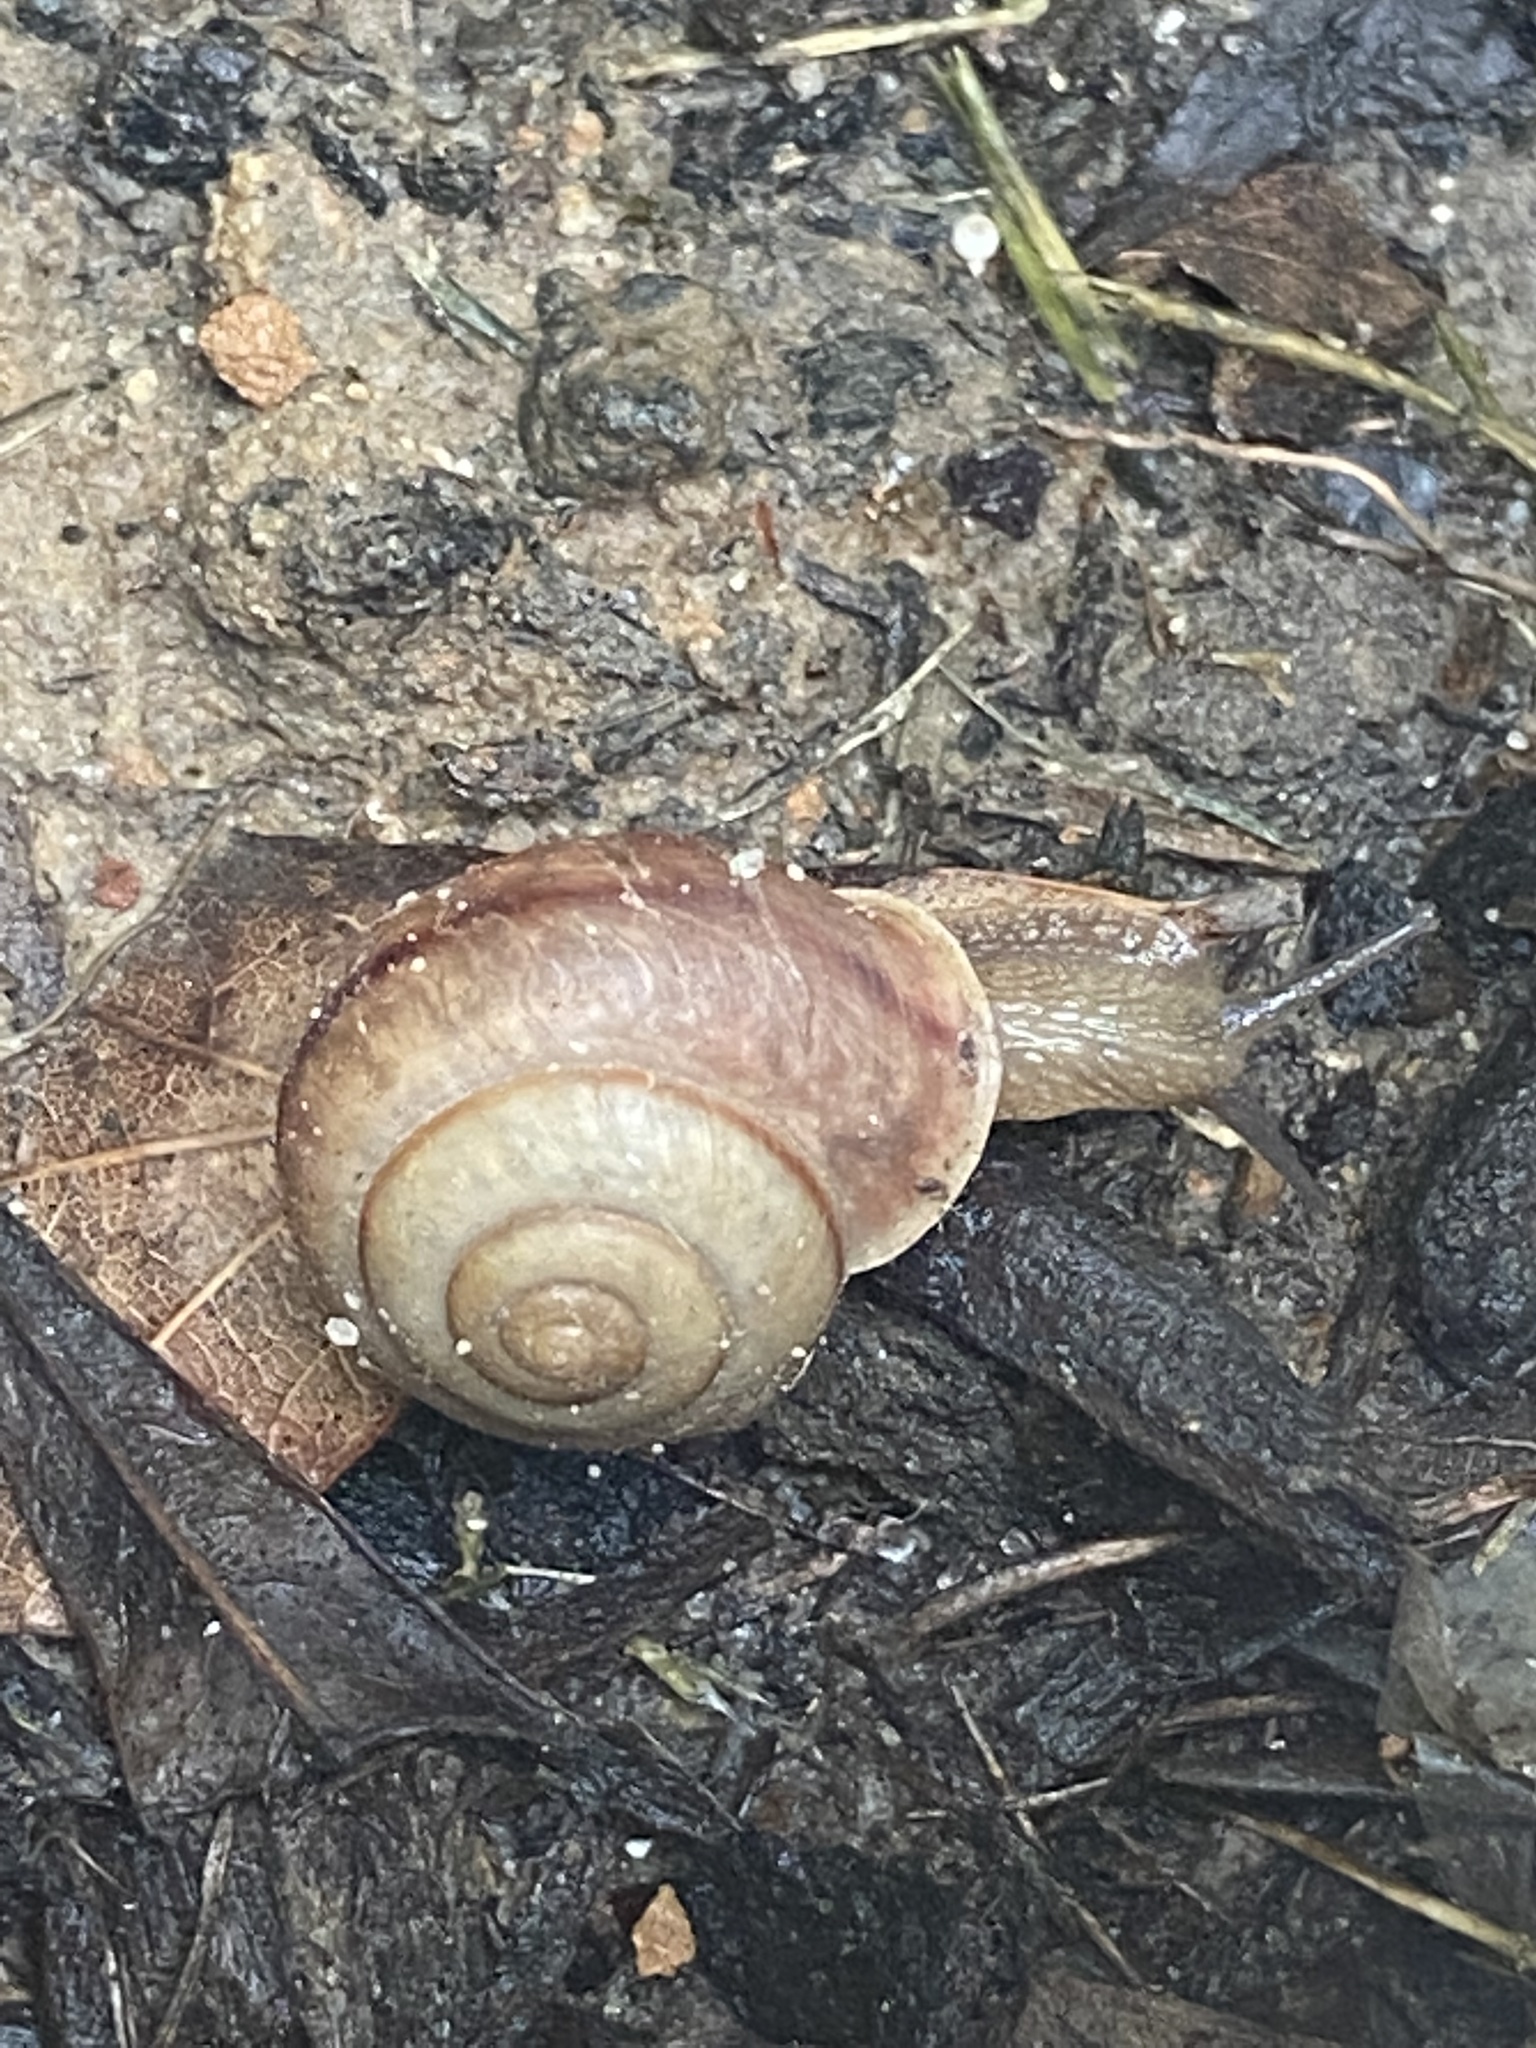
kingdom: Animalia
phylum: Mollusca
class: Gastropoda
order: Stylommatophora
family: Camaenidae
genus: Bradybaena
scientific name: Bradybaena similaris
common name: Asian trampsnail
